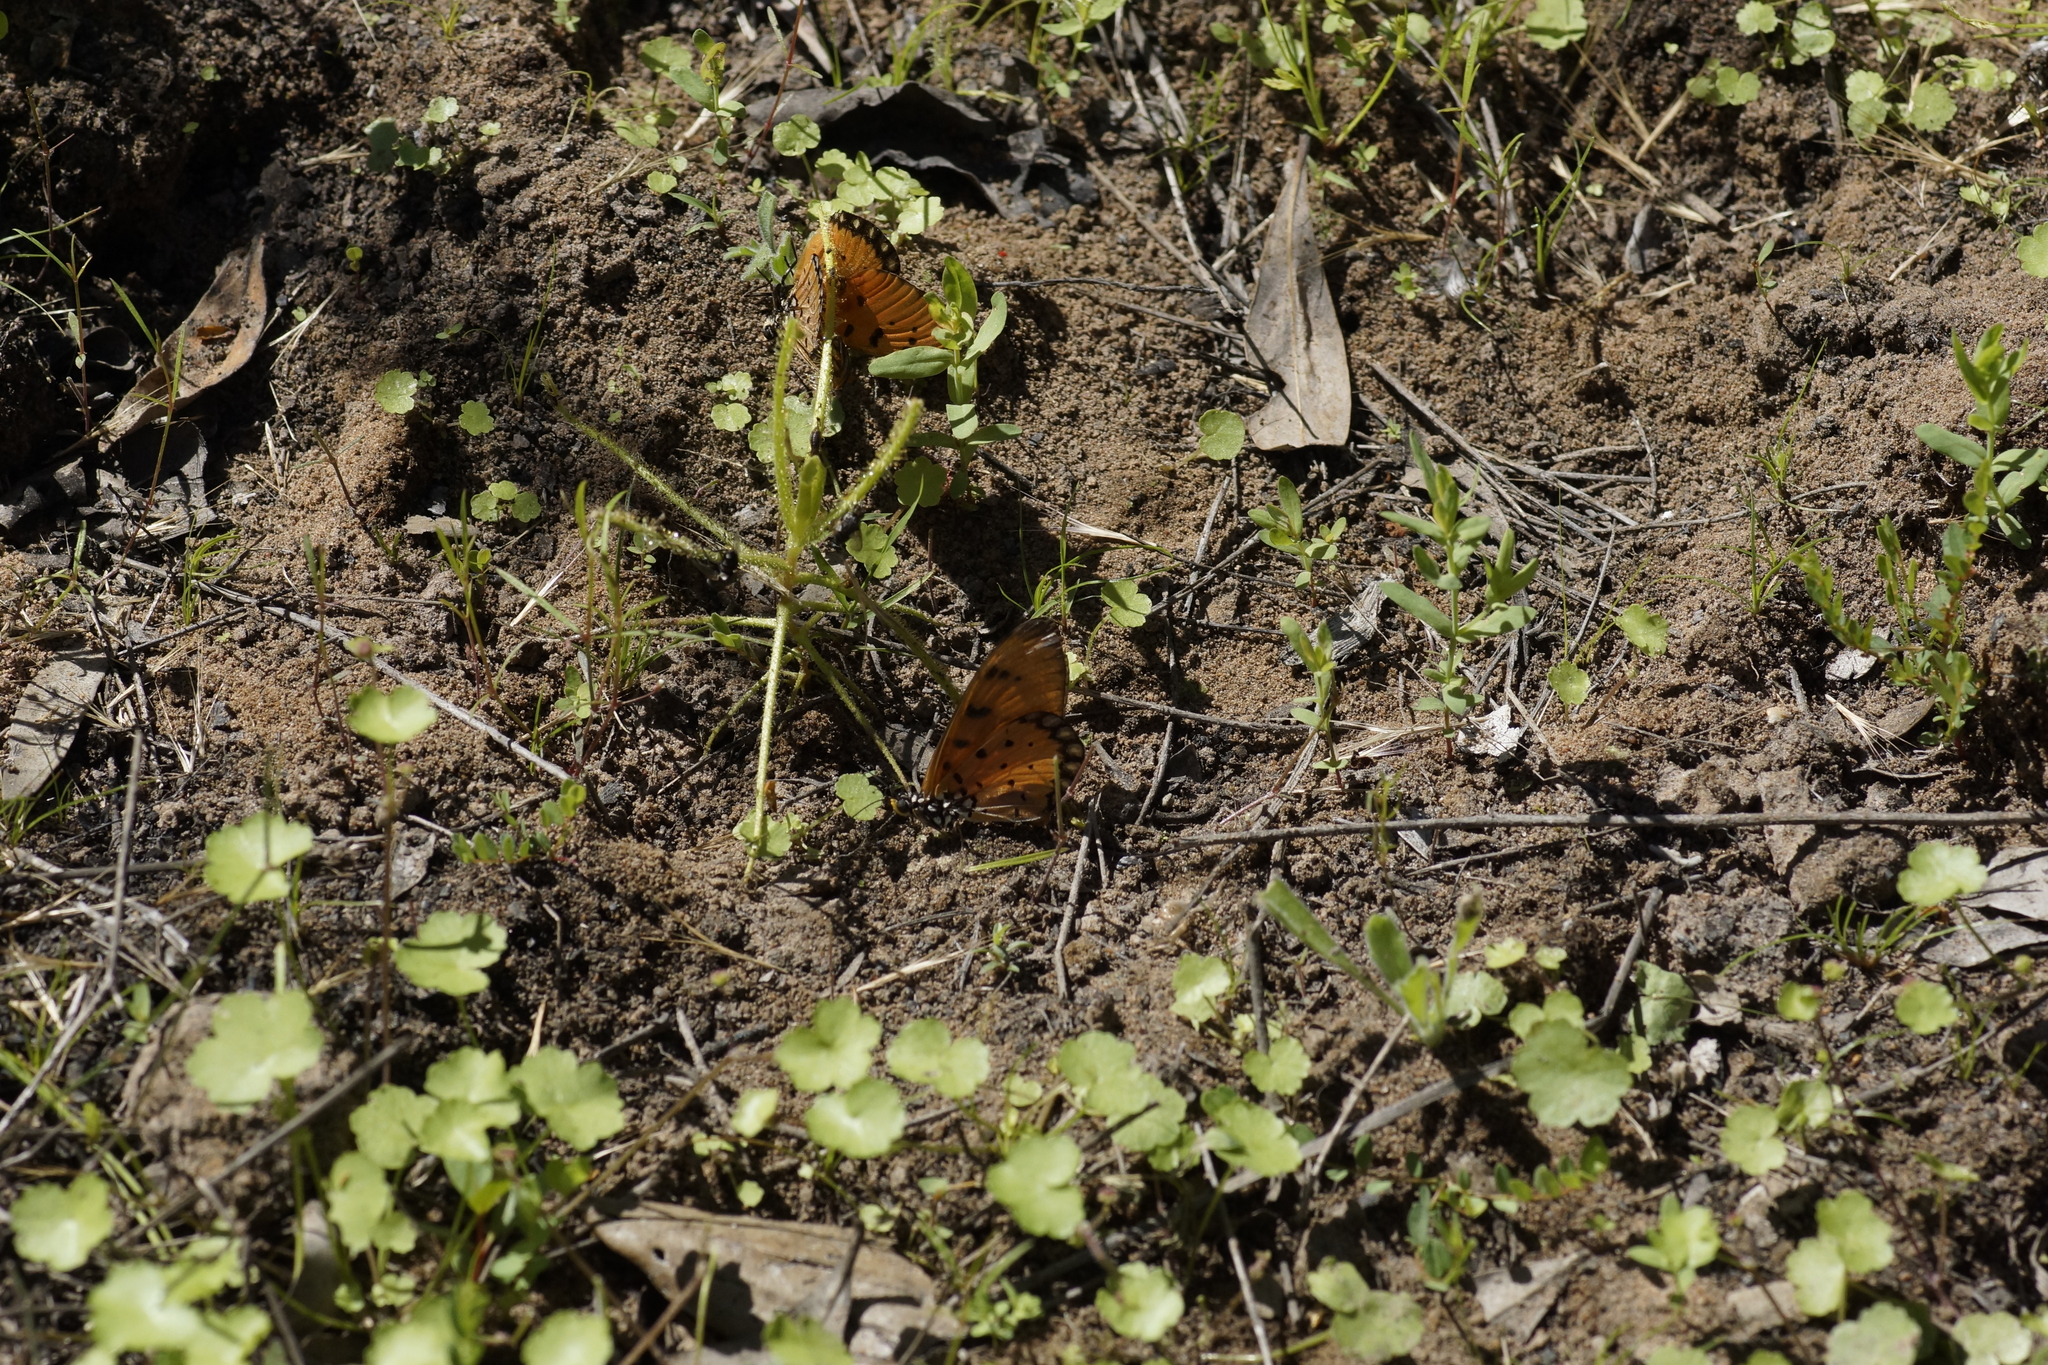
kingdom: Animalia
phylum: Arthropoda
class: Insecta
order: Lepidoptera
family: Nymphalidae
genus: Acraea
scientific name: Acraea terpsicore
